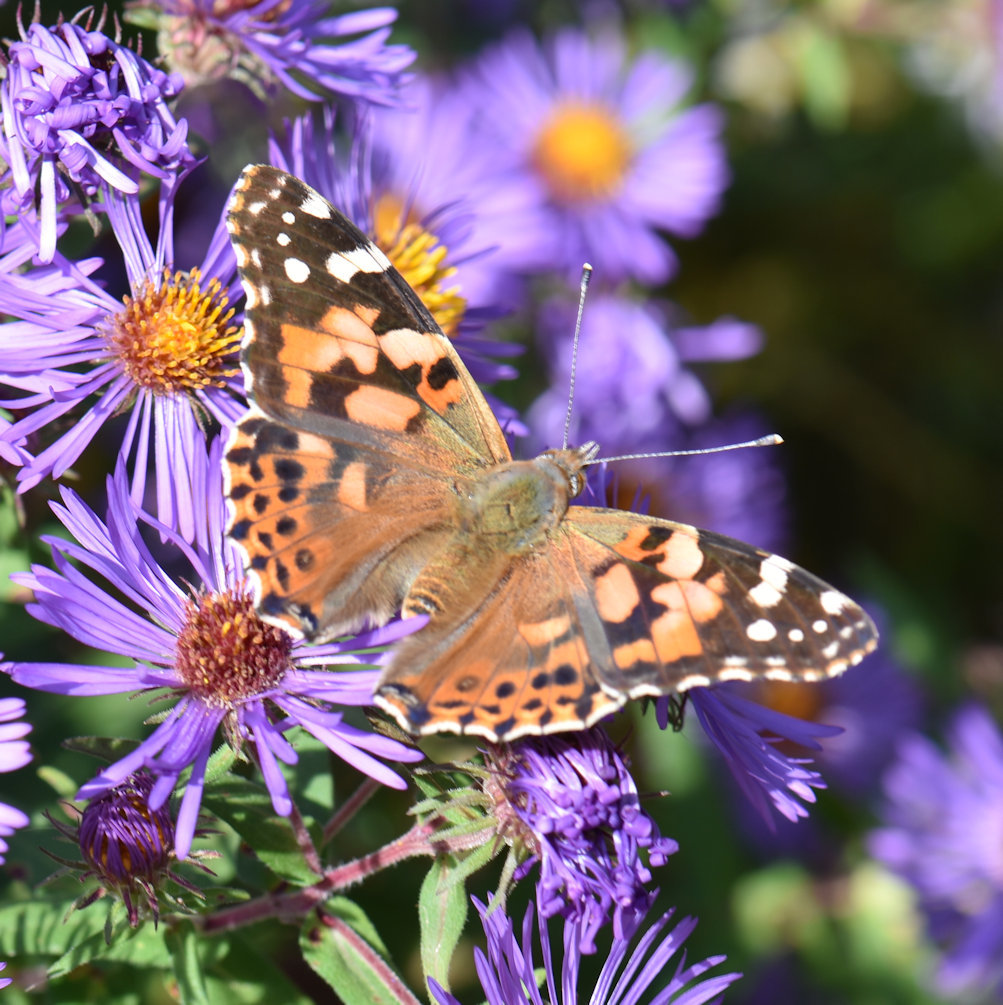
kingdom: Animalia
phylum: Arthropoda
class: Insecta
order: Lepidoptera
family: Nymphalidae
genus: Vanessa
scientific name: Vanessa cardui
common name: Painted lady
